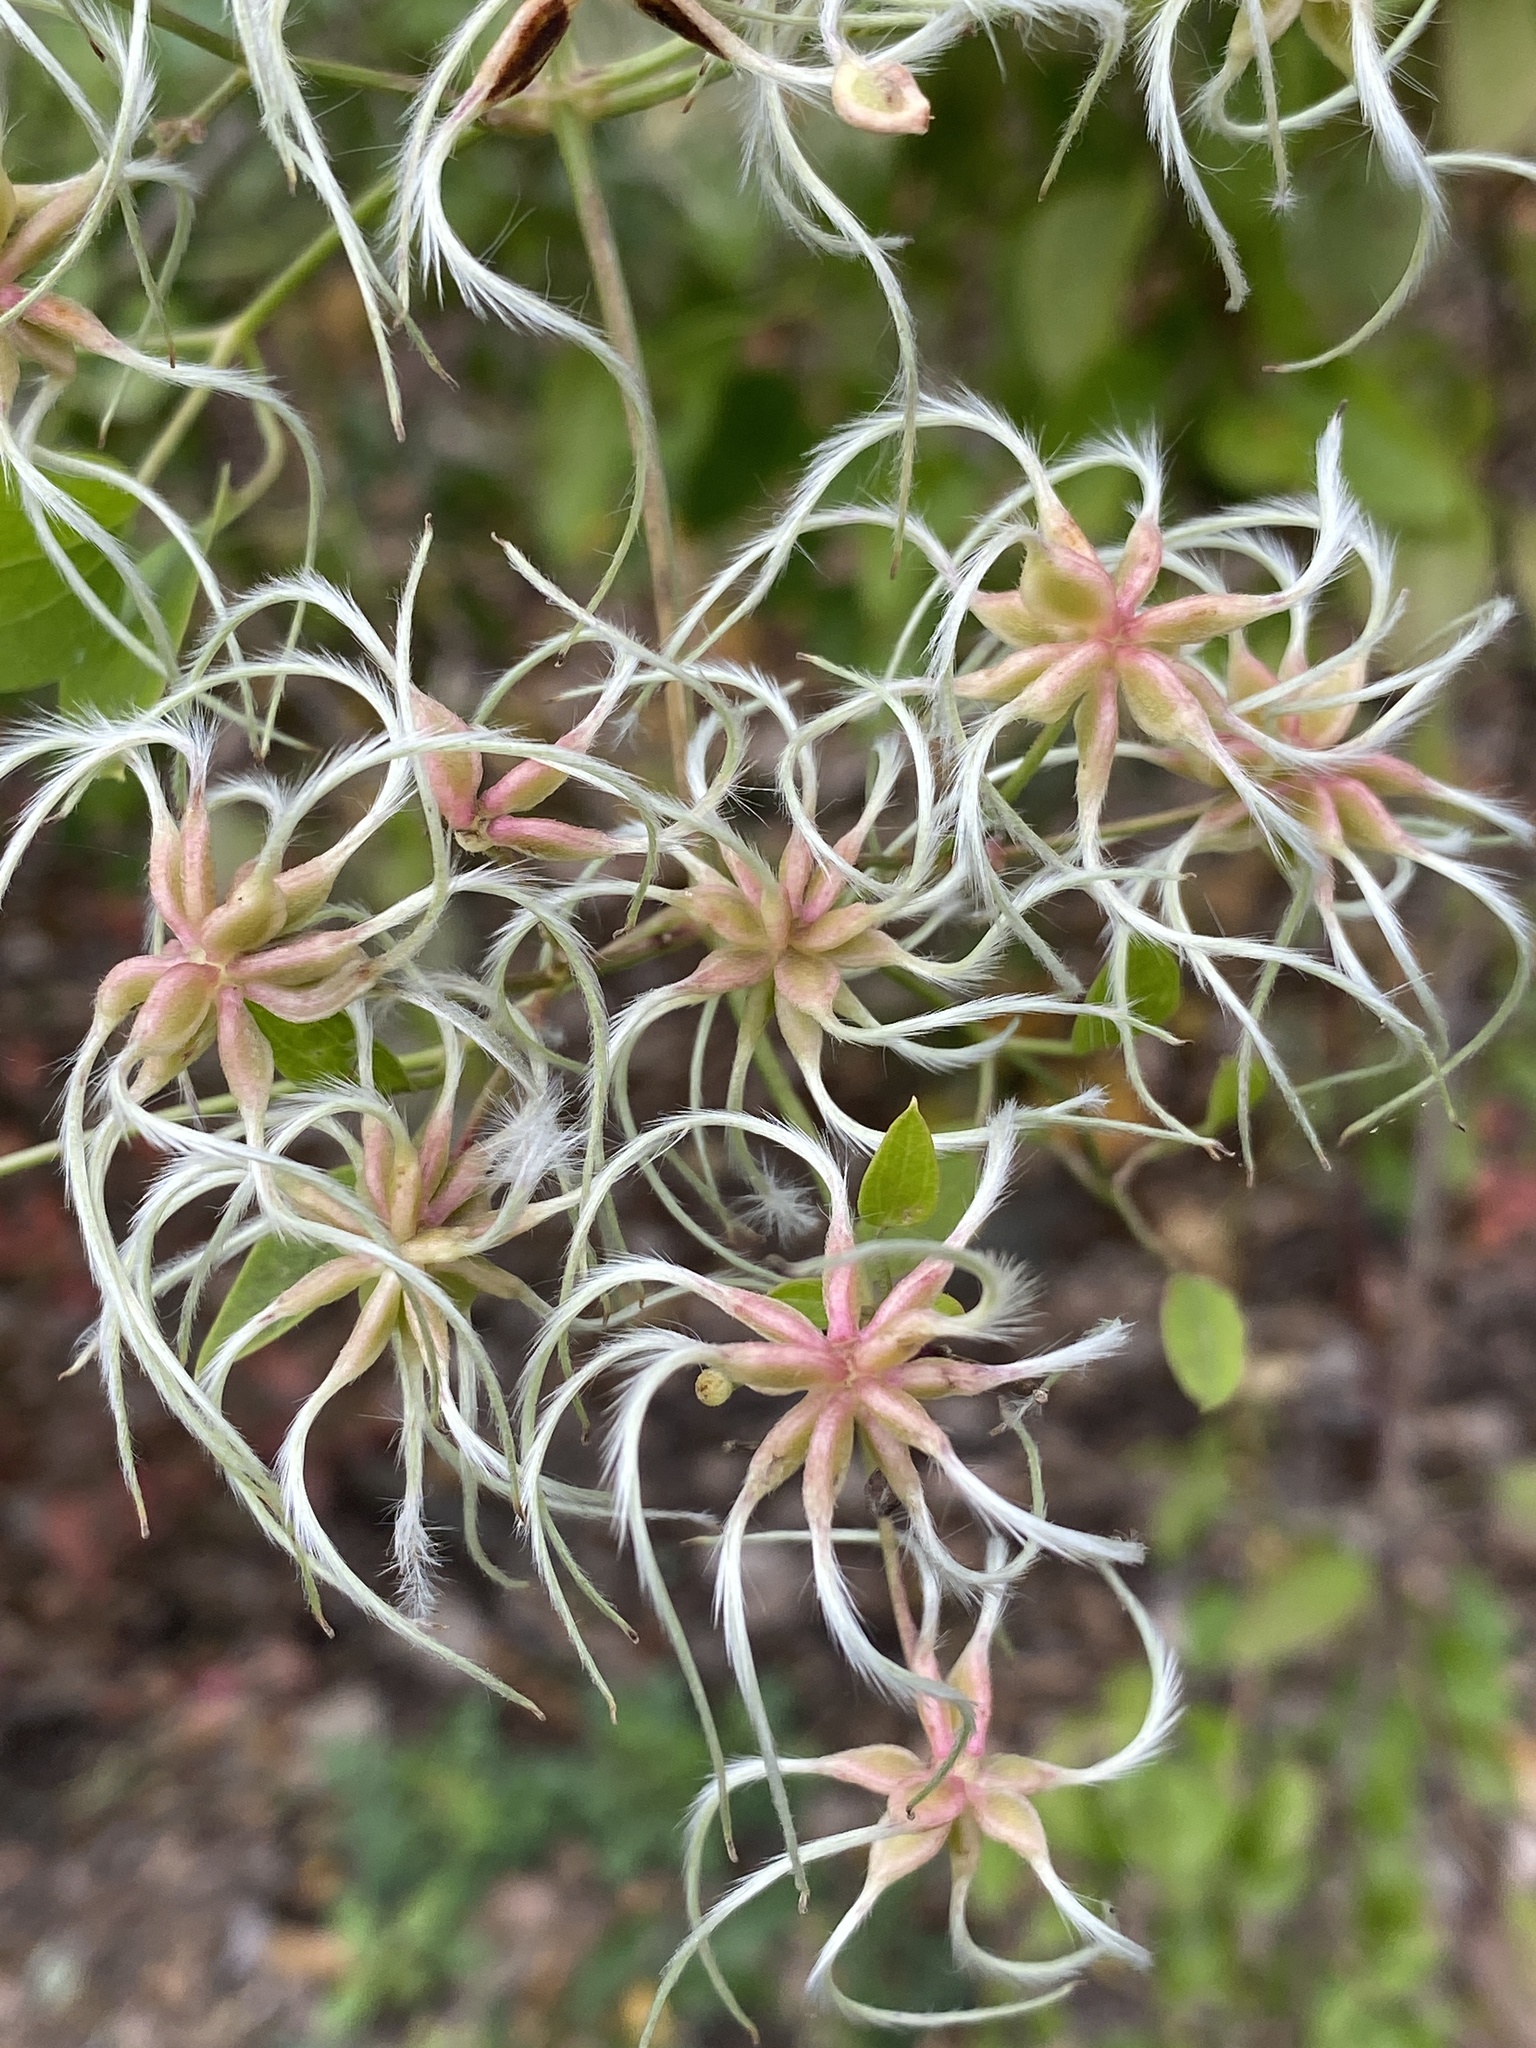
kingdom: Plantae
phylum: Tracheophyta
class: Magnoliopsida
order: Ranunculales
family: Ranunculaceae
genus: Clematis
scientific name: Clematis terniflora
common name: Sweet autumn clematis
